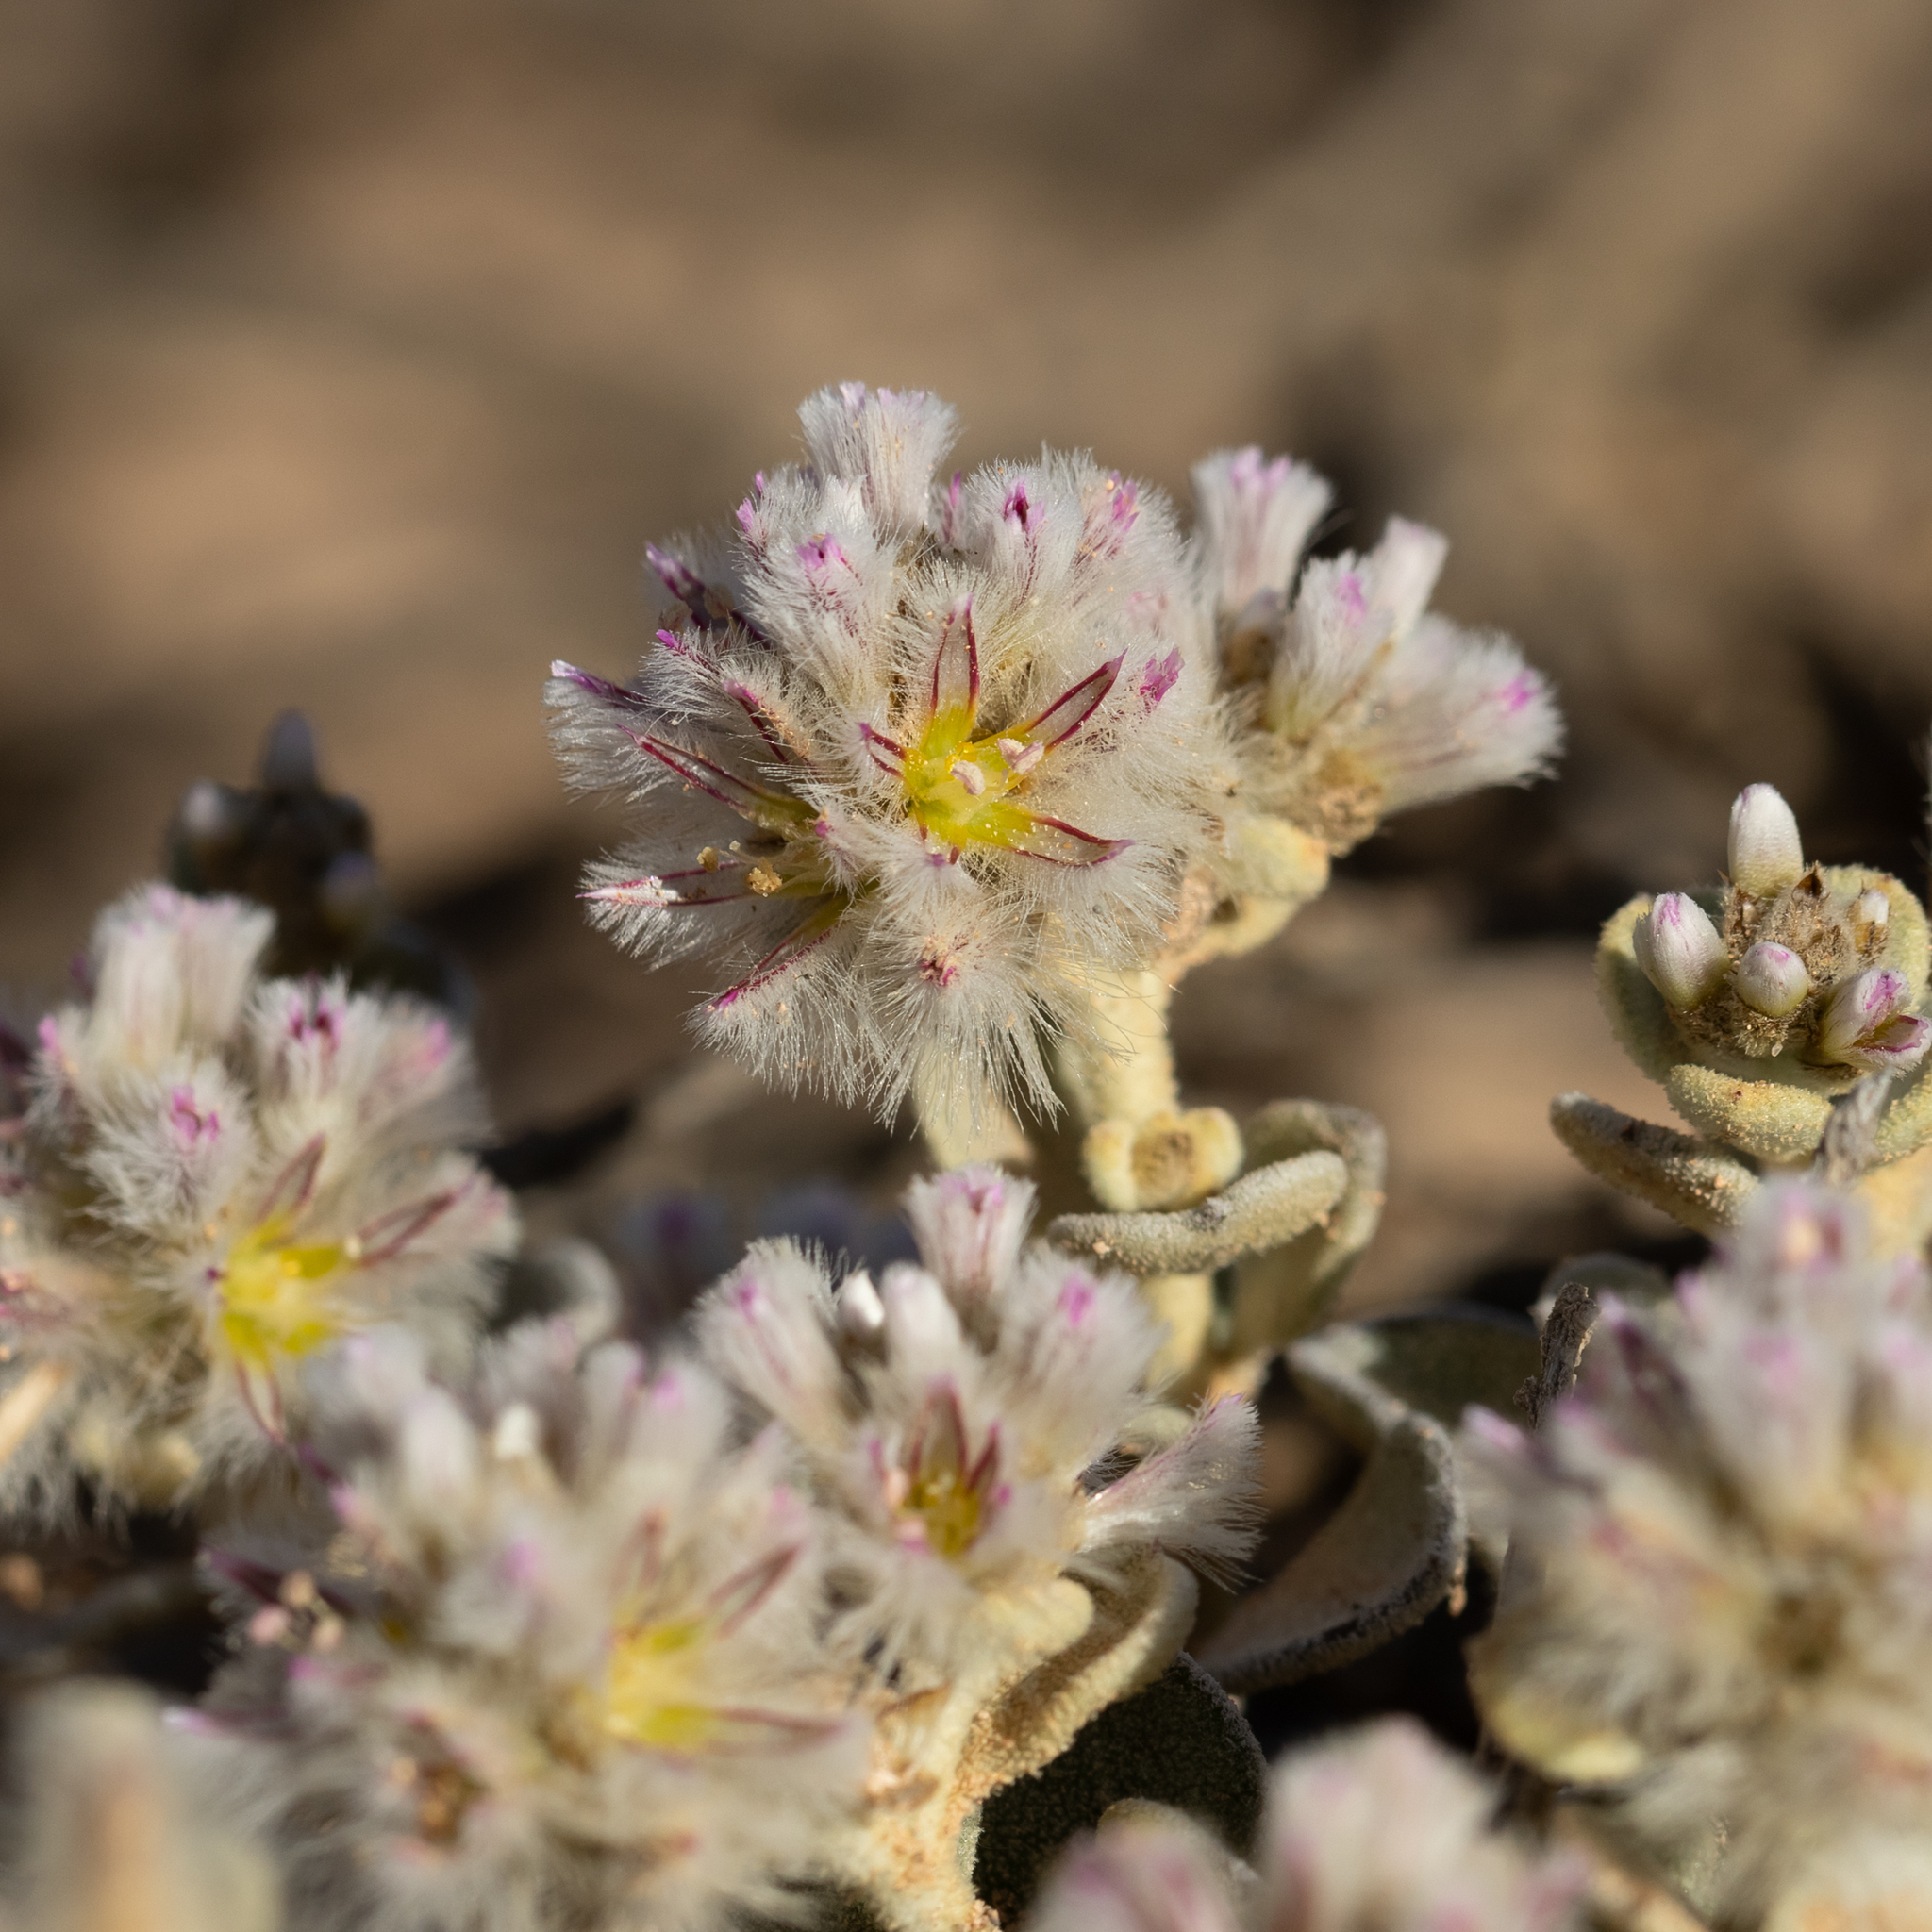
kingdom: Plantae
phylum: Tracheophyta
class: Magnoliopsida
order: Caryophyllales
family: Amaranthaceae
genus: Ptilotus
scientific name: Ptilotus obovatus
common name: Cottonbush
